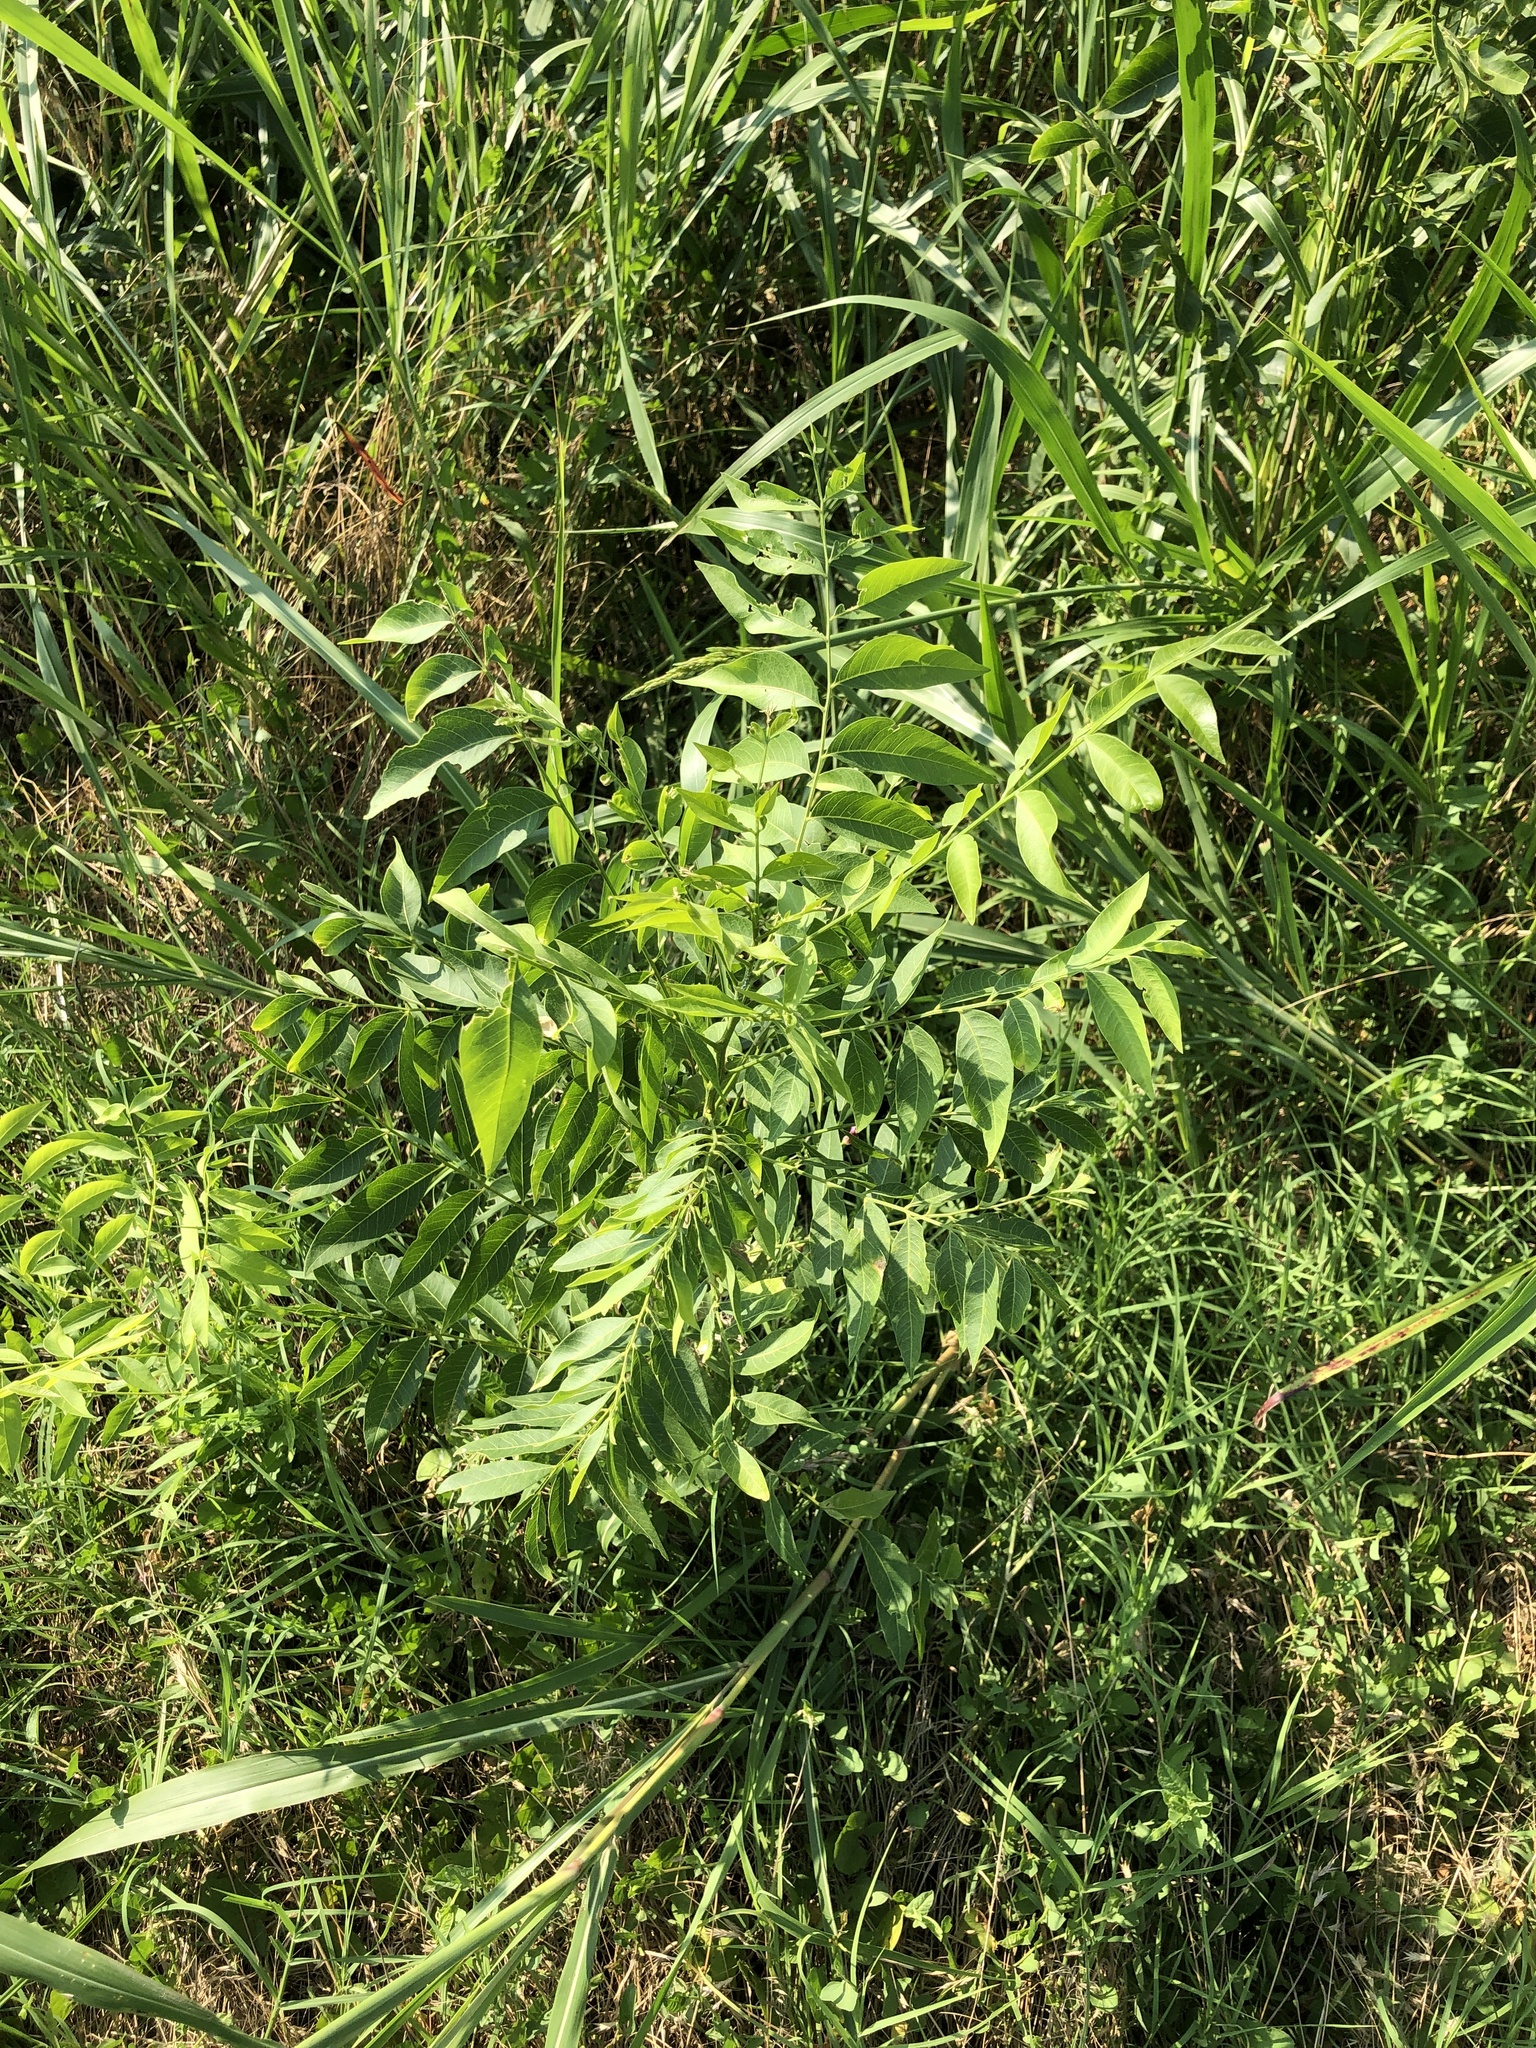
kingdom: Plantae
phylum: Tracheophyta
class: Magnoliopsida
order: Sapindales
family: Sapindaceae
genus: Sapindus
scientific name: Sapindus drummondii
